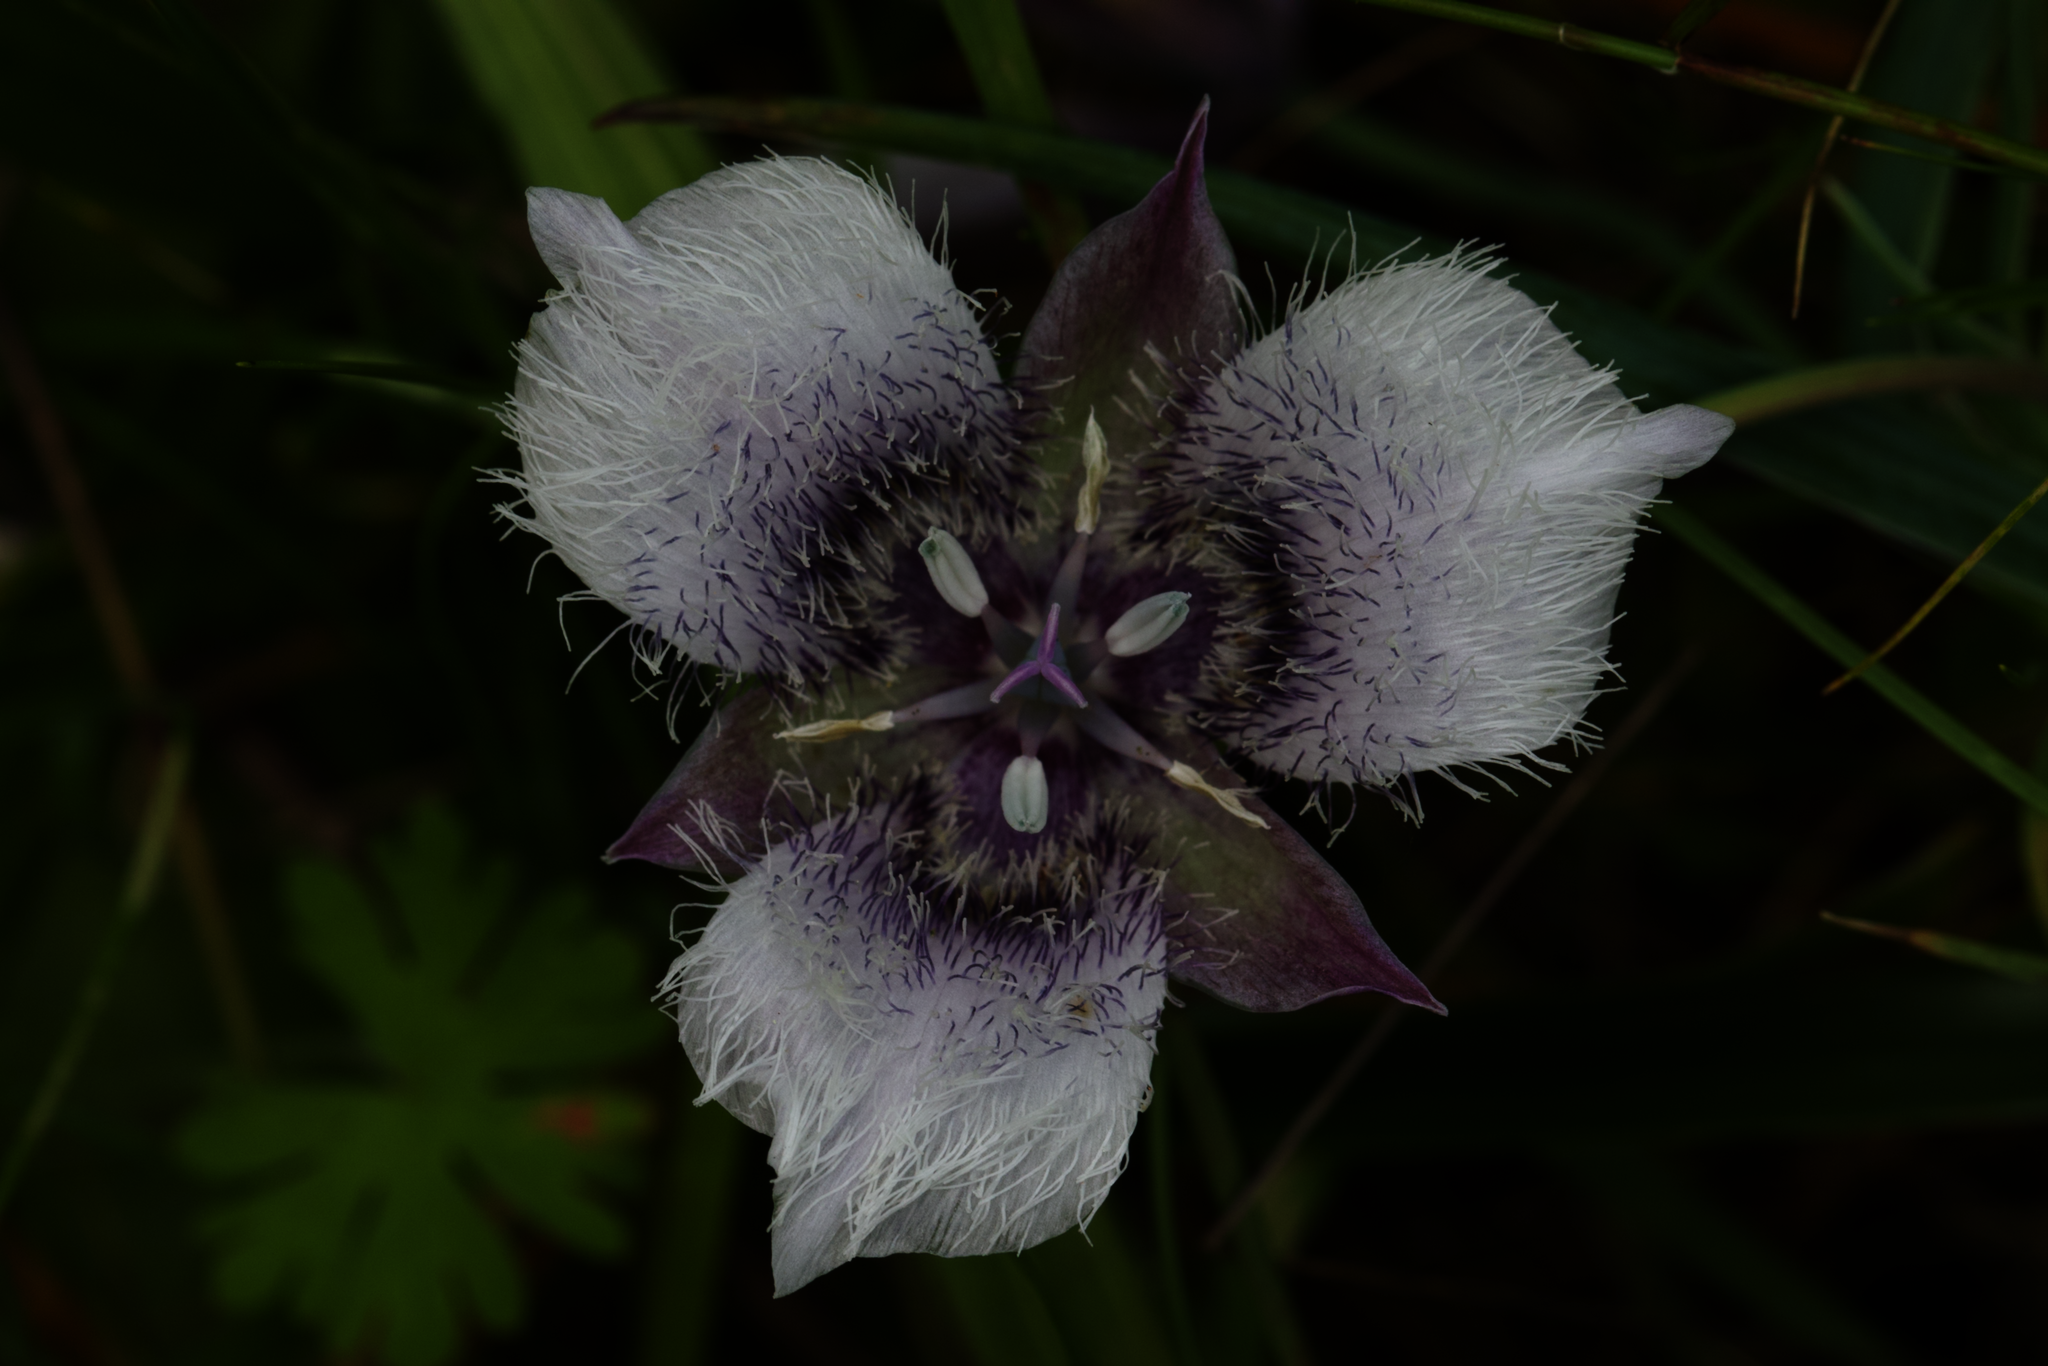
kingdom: Plantae
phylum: Tracheophyta
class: Liliopsida
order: Liliales
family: Liliaceae
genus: Calochortus
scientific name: Calochortus tolmiei
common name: Pussy-ears
